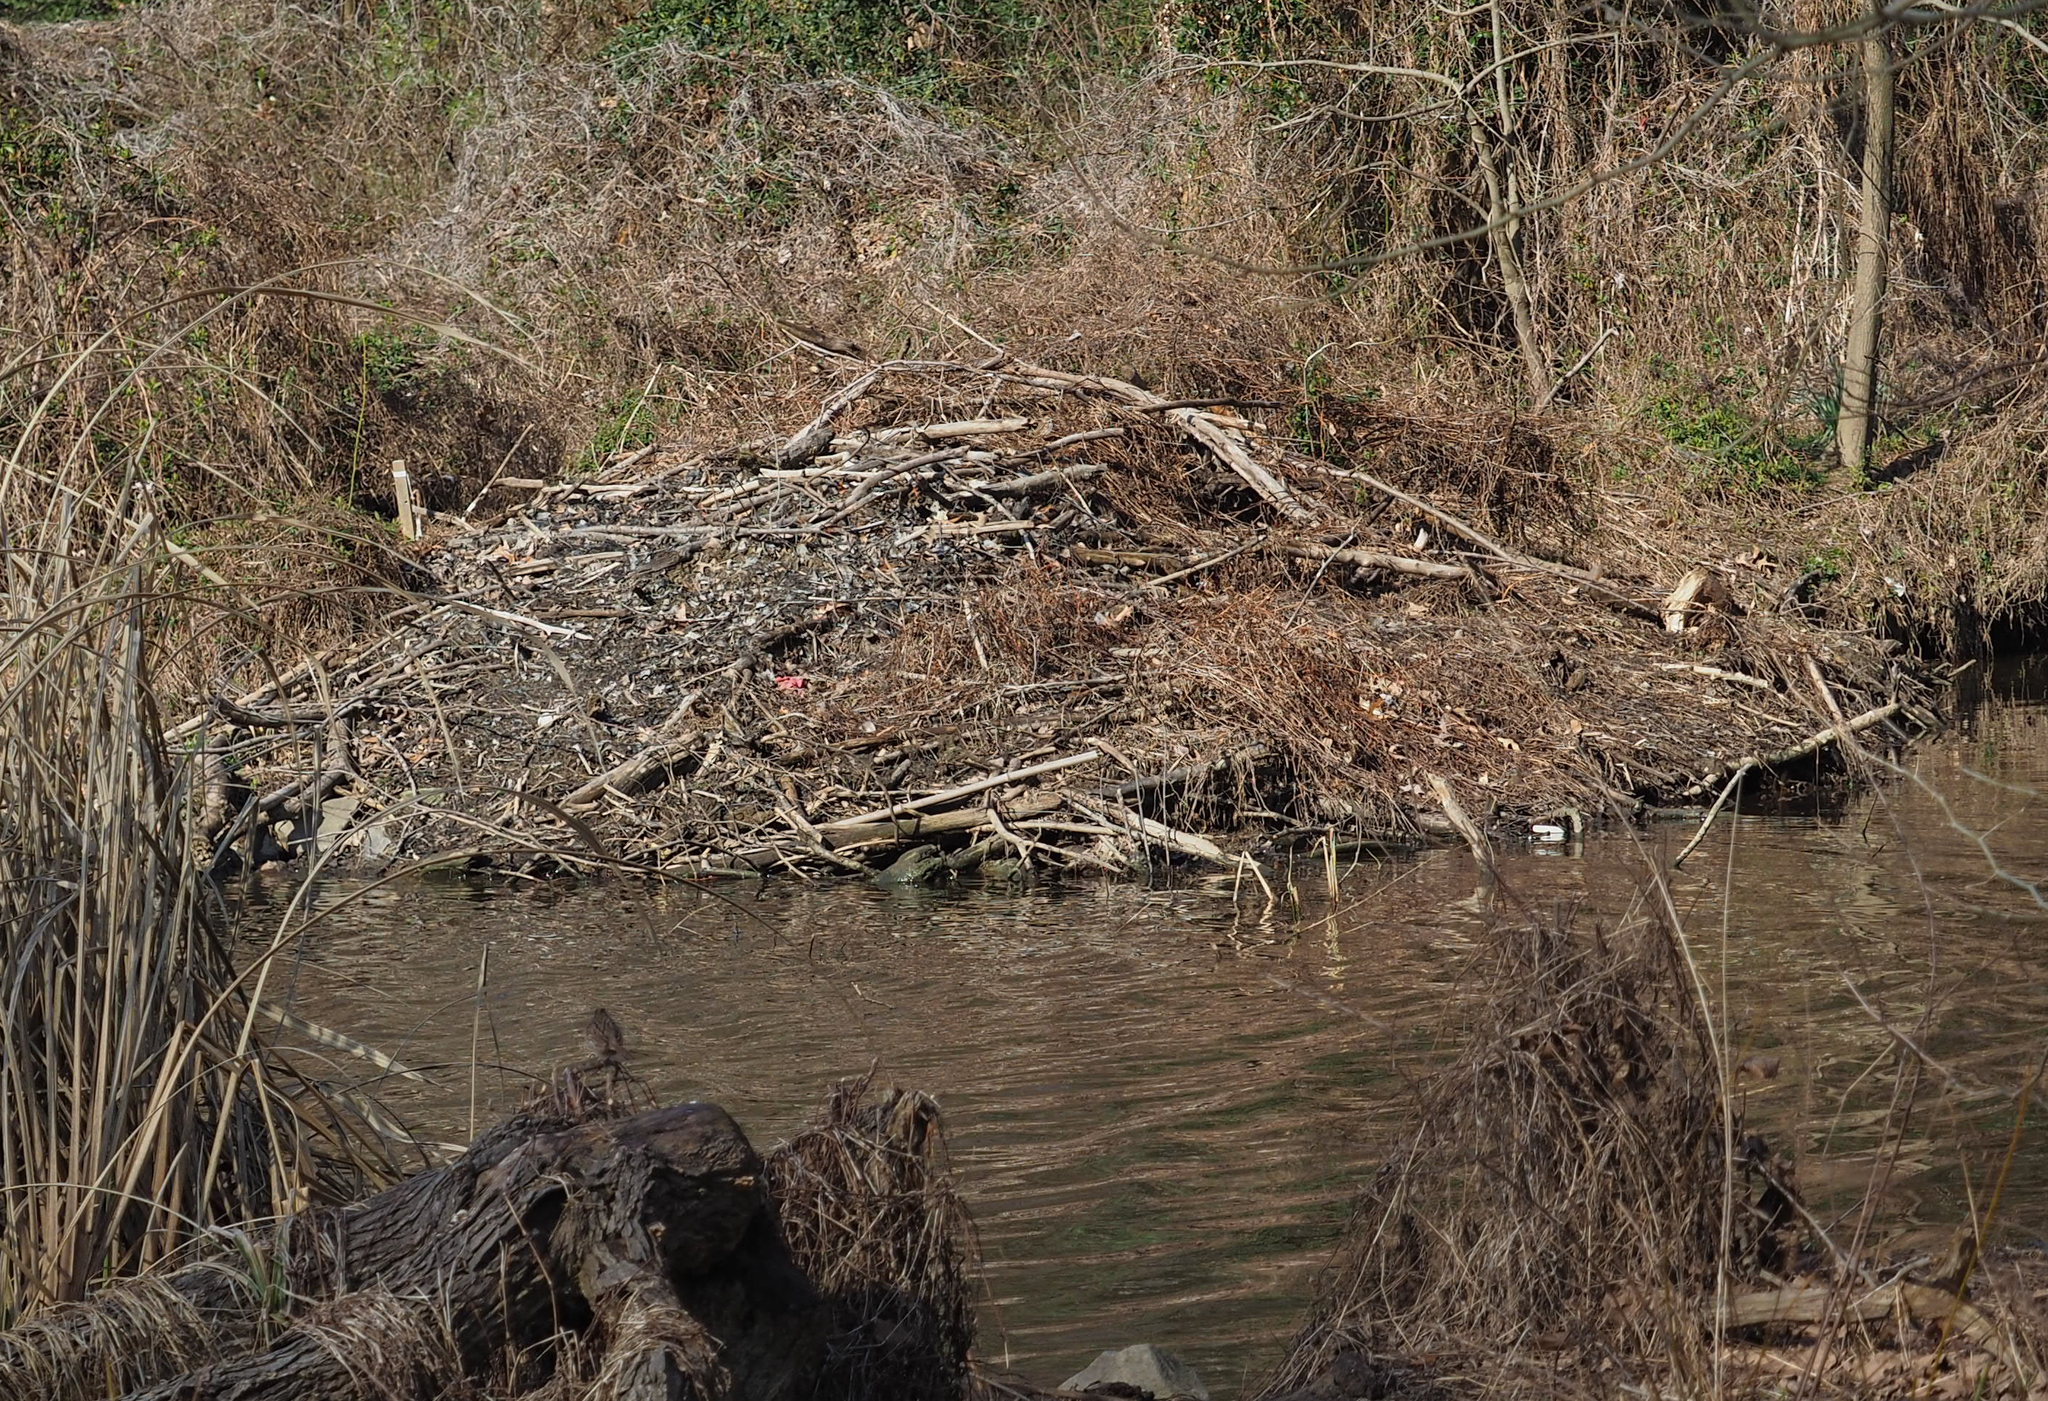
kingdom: Animalia
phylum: Chordata
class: Mammalia
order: Rodentia
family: Castoridae
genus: Castor
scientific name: Castor canadensis
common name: American beaver
